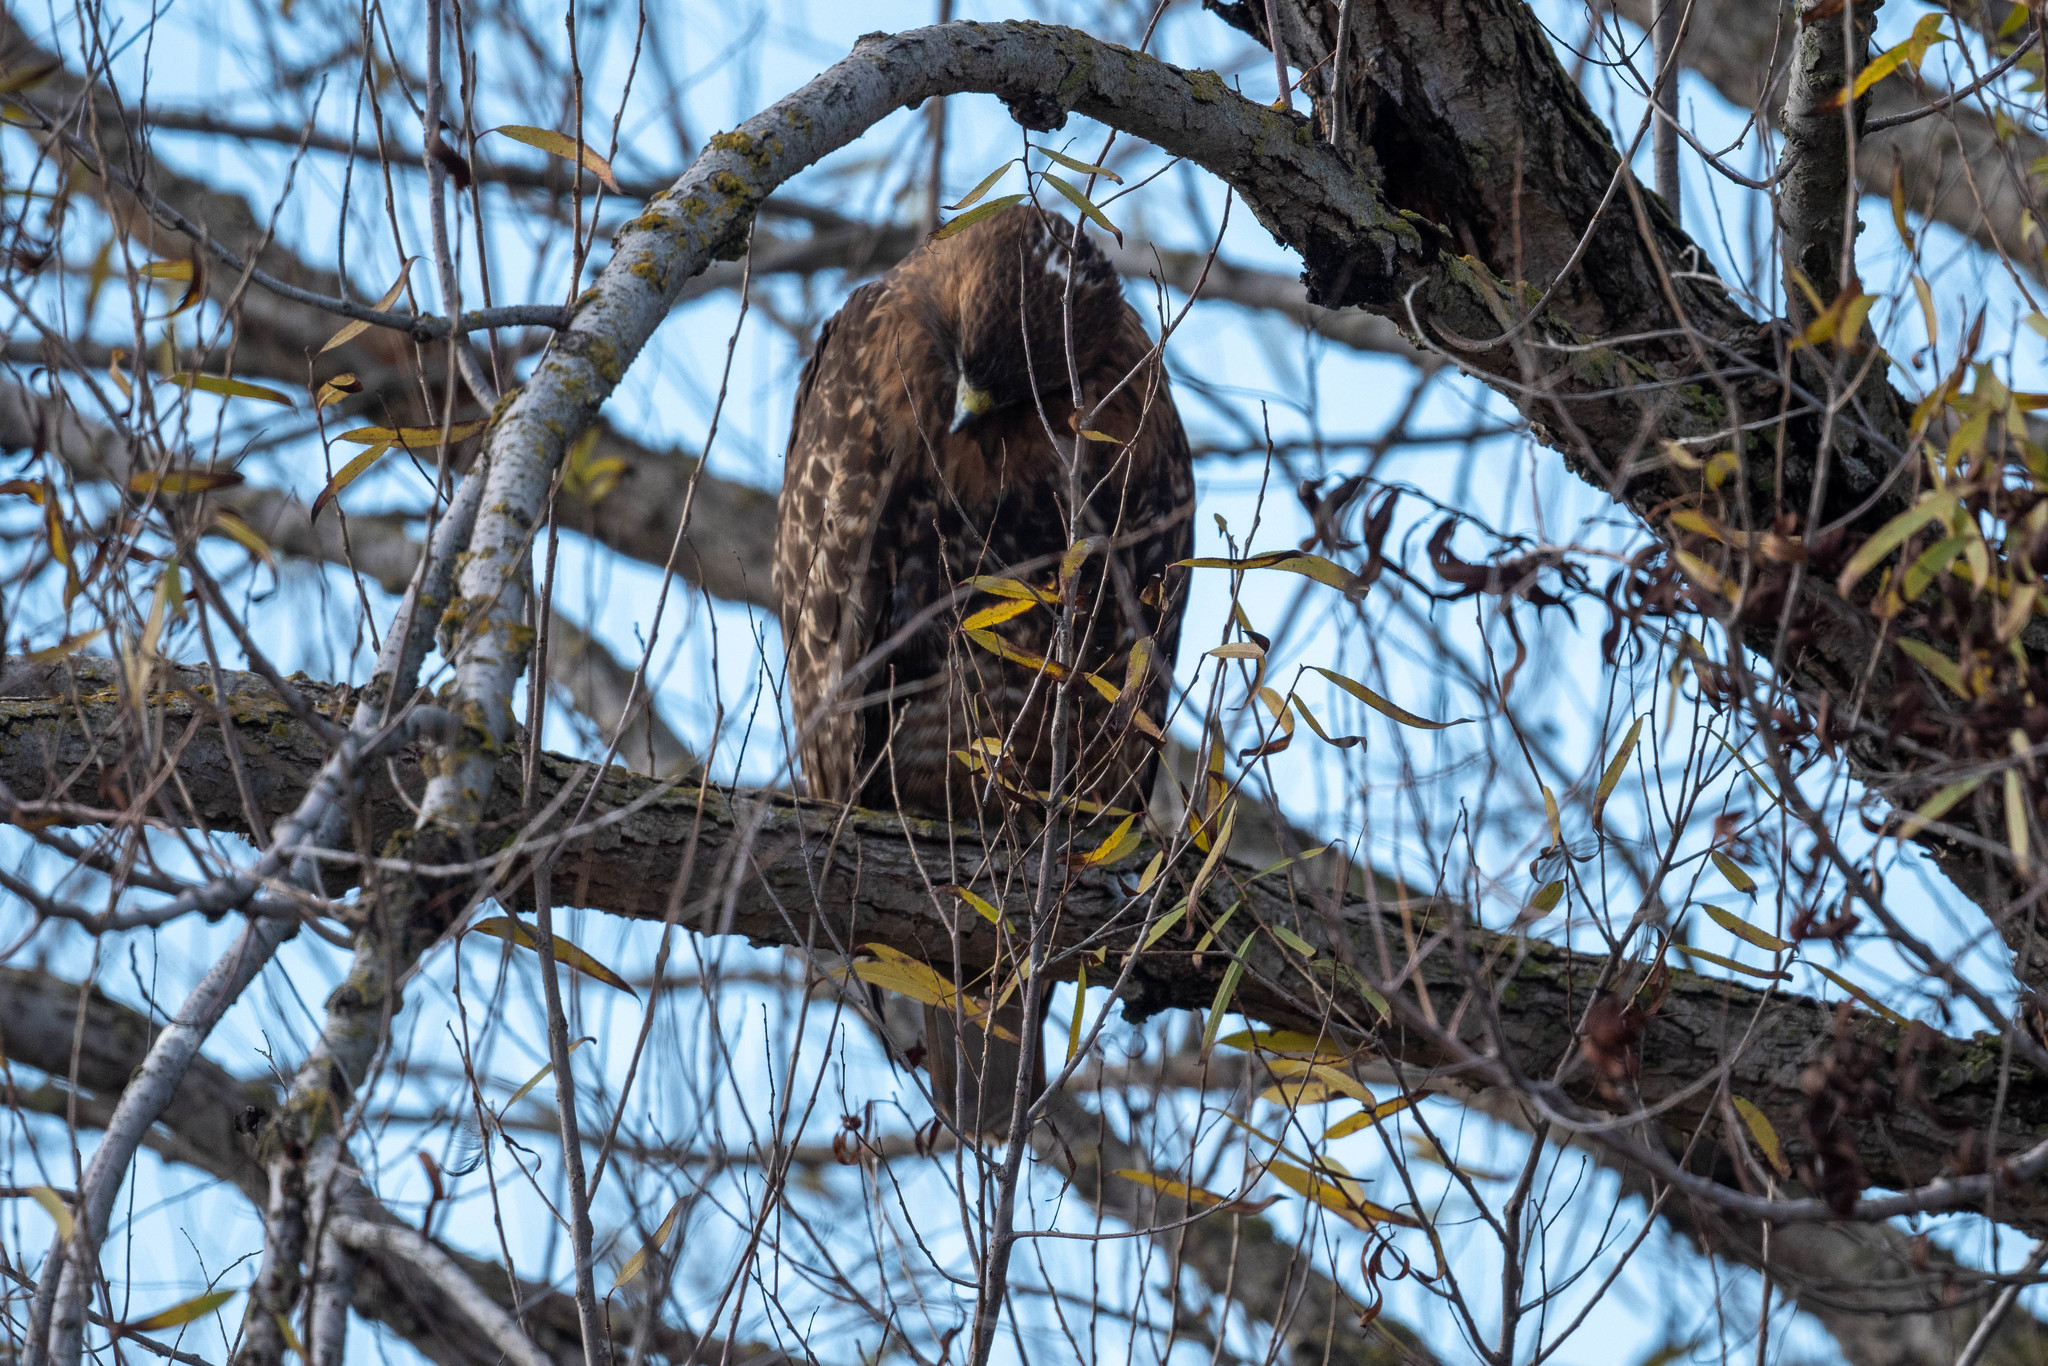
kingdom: Animalia
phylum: Chordata
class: Aves
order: Accipitriformes
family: Accipitridae
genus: Buteo
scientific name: Buteo jamaicensis
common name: Red-tailed hawk
